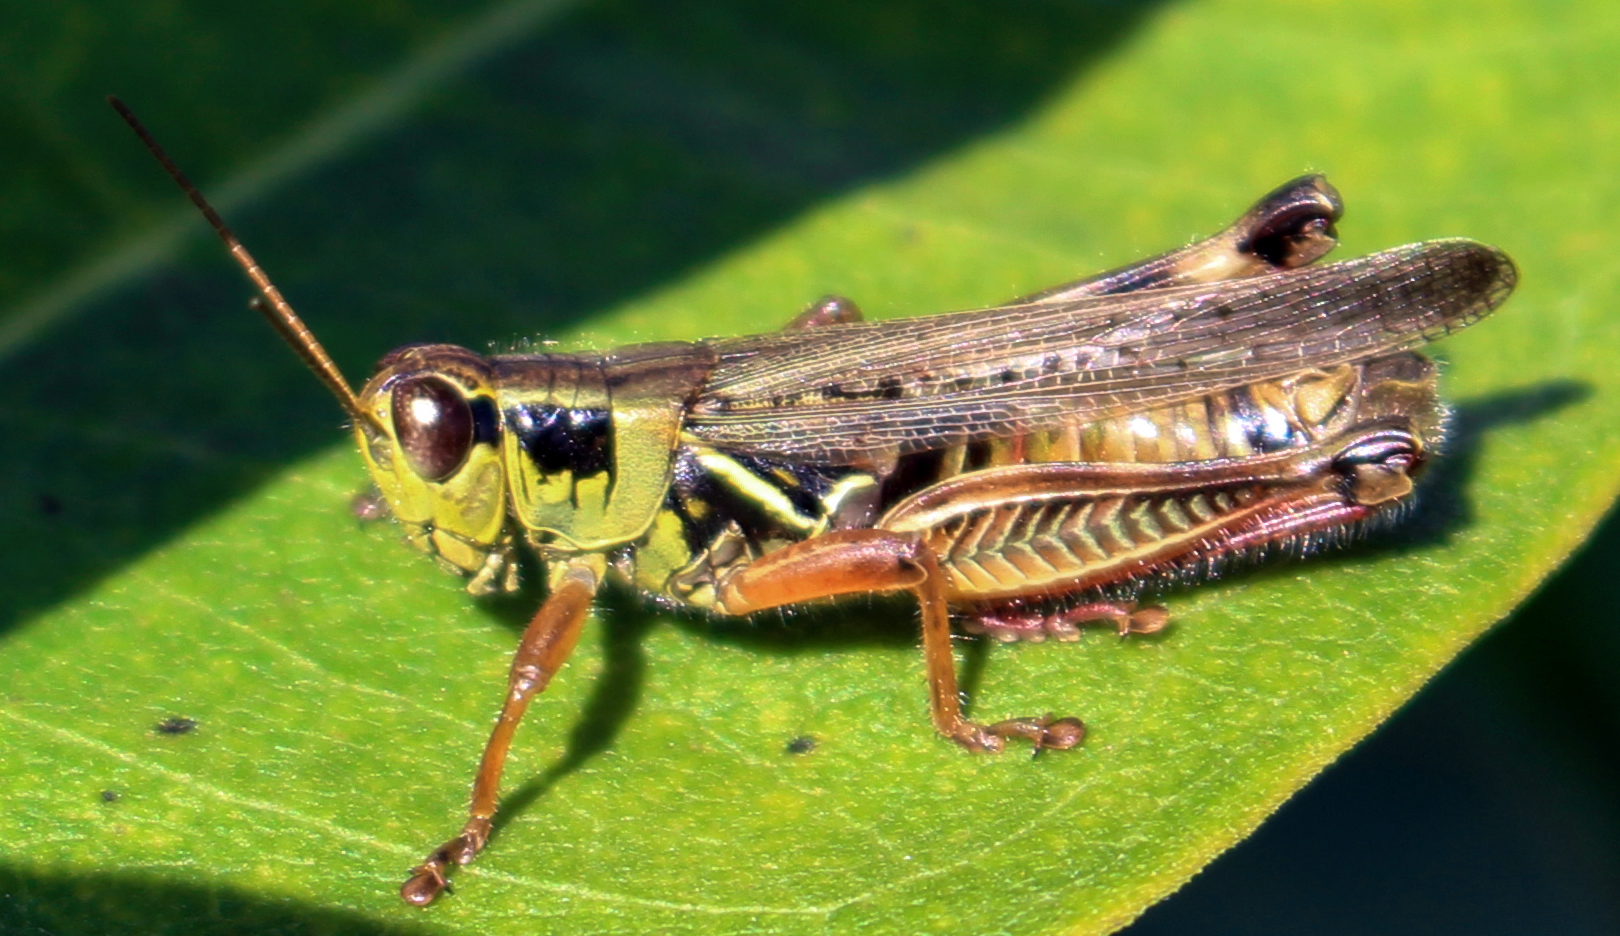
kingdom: Animalia
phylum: Arthropoda
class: Insecta
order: Orthoptera
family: Acrididae
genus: Melanoplus
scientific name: Melanoplus femurrubrum
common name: Red-legged grasshopper
